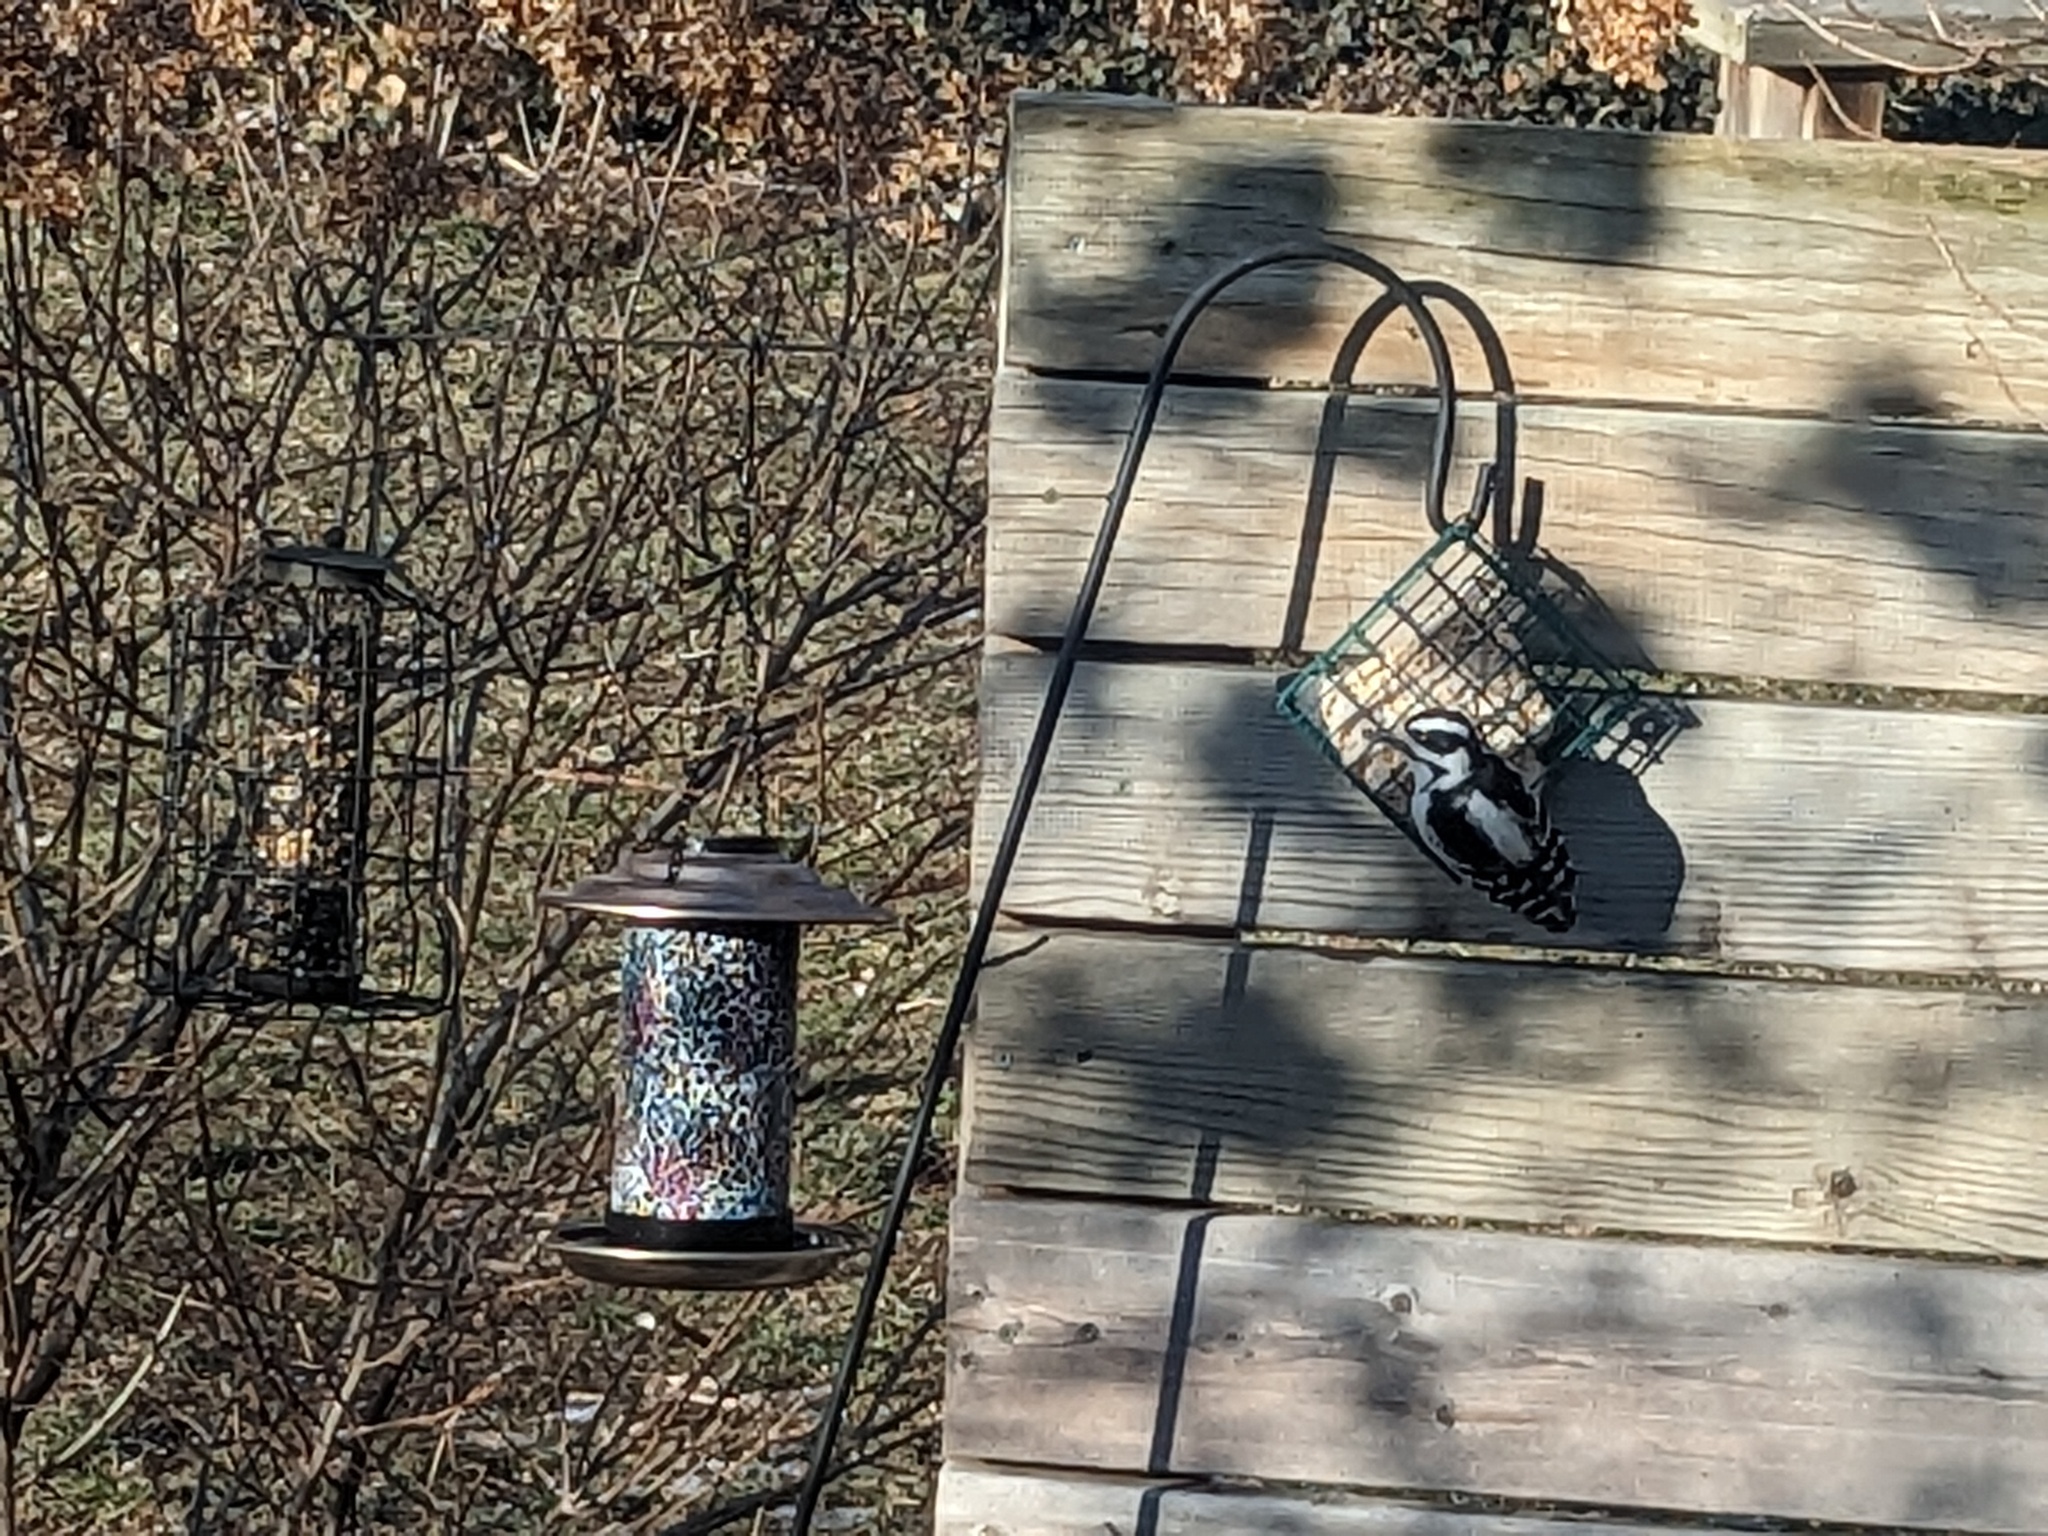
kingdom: Animalia
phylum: Chordata
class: Aves
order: Piciformes
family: Picidae
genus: Leuconotopicus
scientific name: Leuconotopicus villosus
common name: Hairy woodpecker
